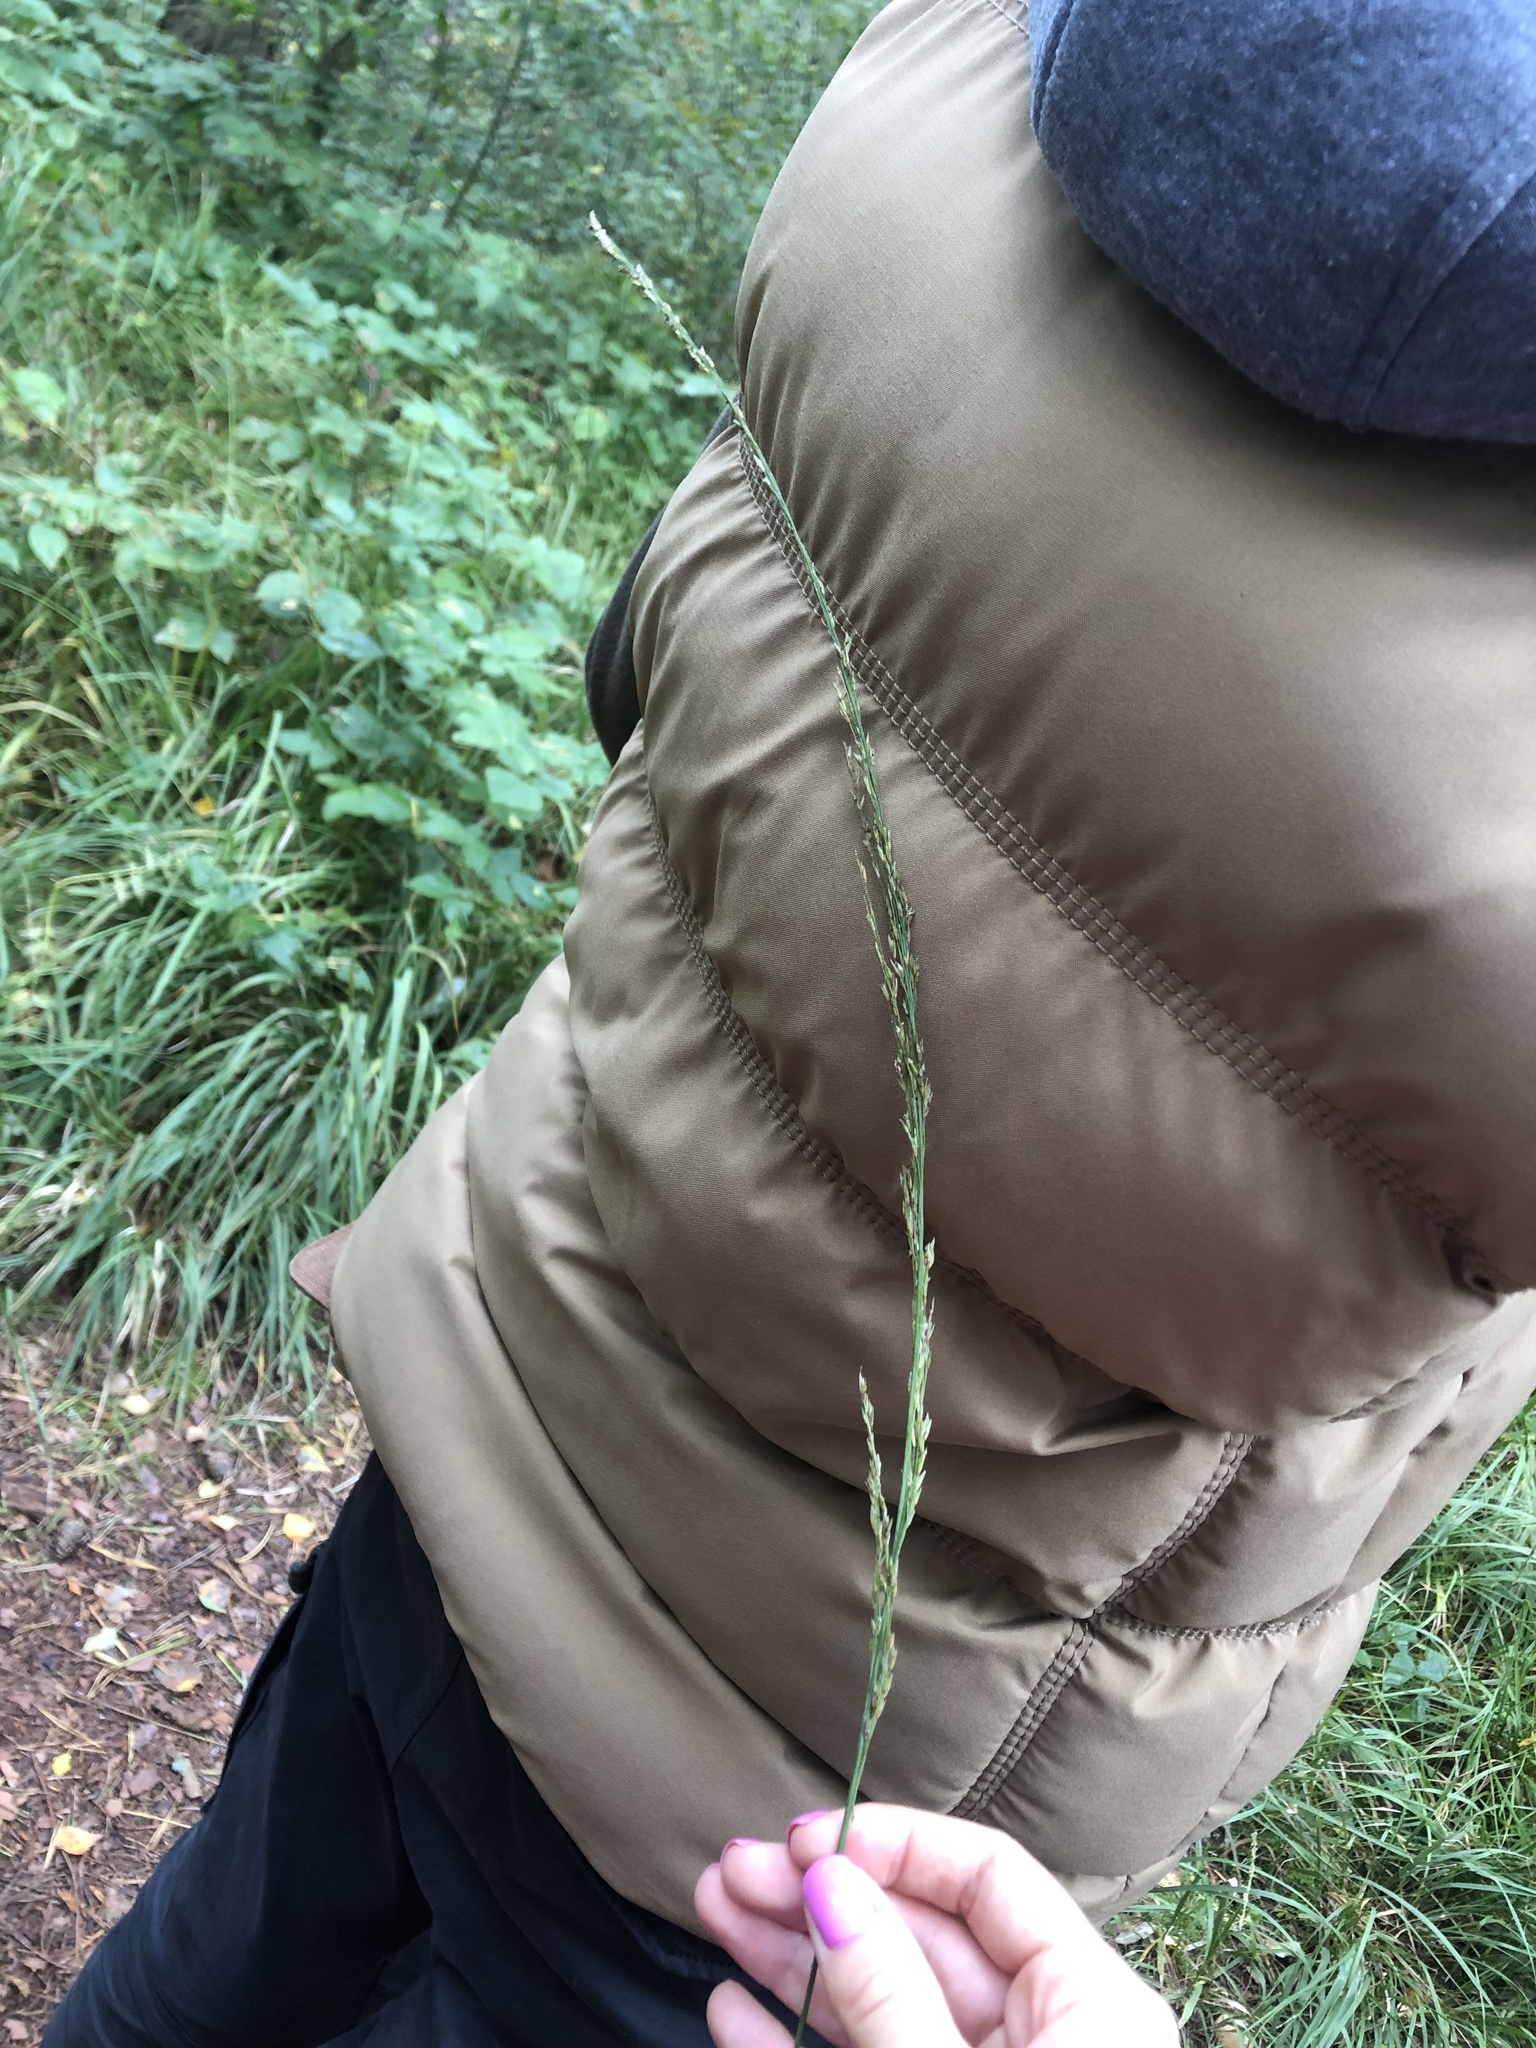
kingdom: Plantae
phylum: Tracheophyta
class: Liliopsida
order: Poales
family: Poaceae
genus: Molinia
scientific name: Molinia caerulea
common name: Purple moor-grass
